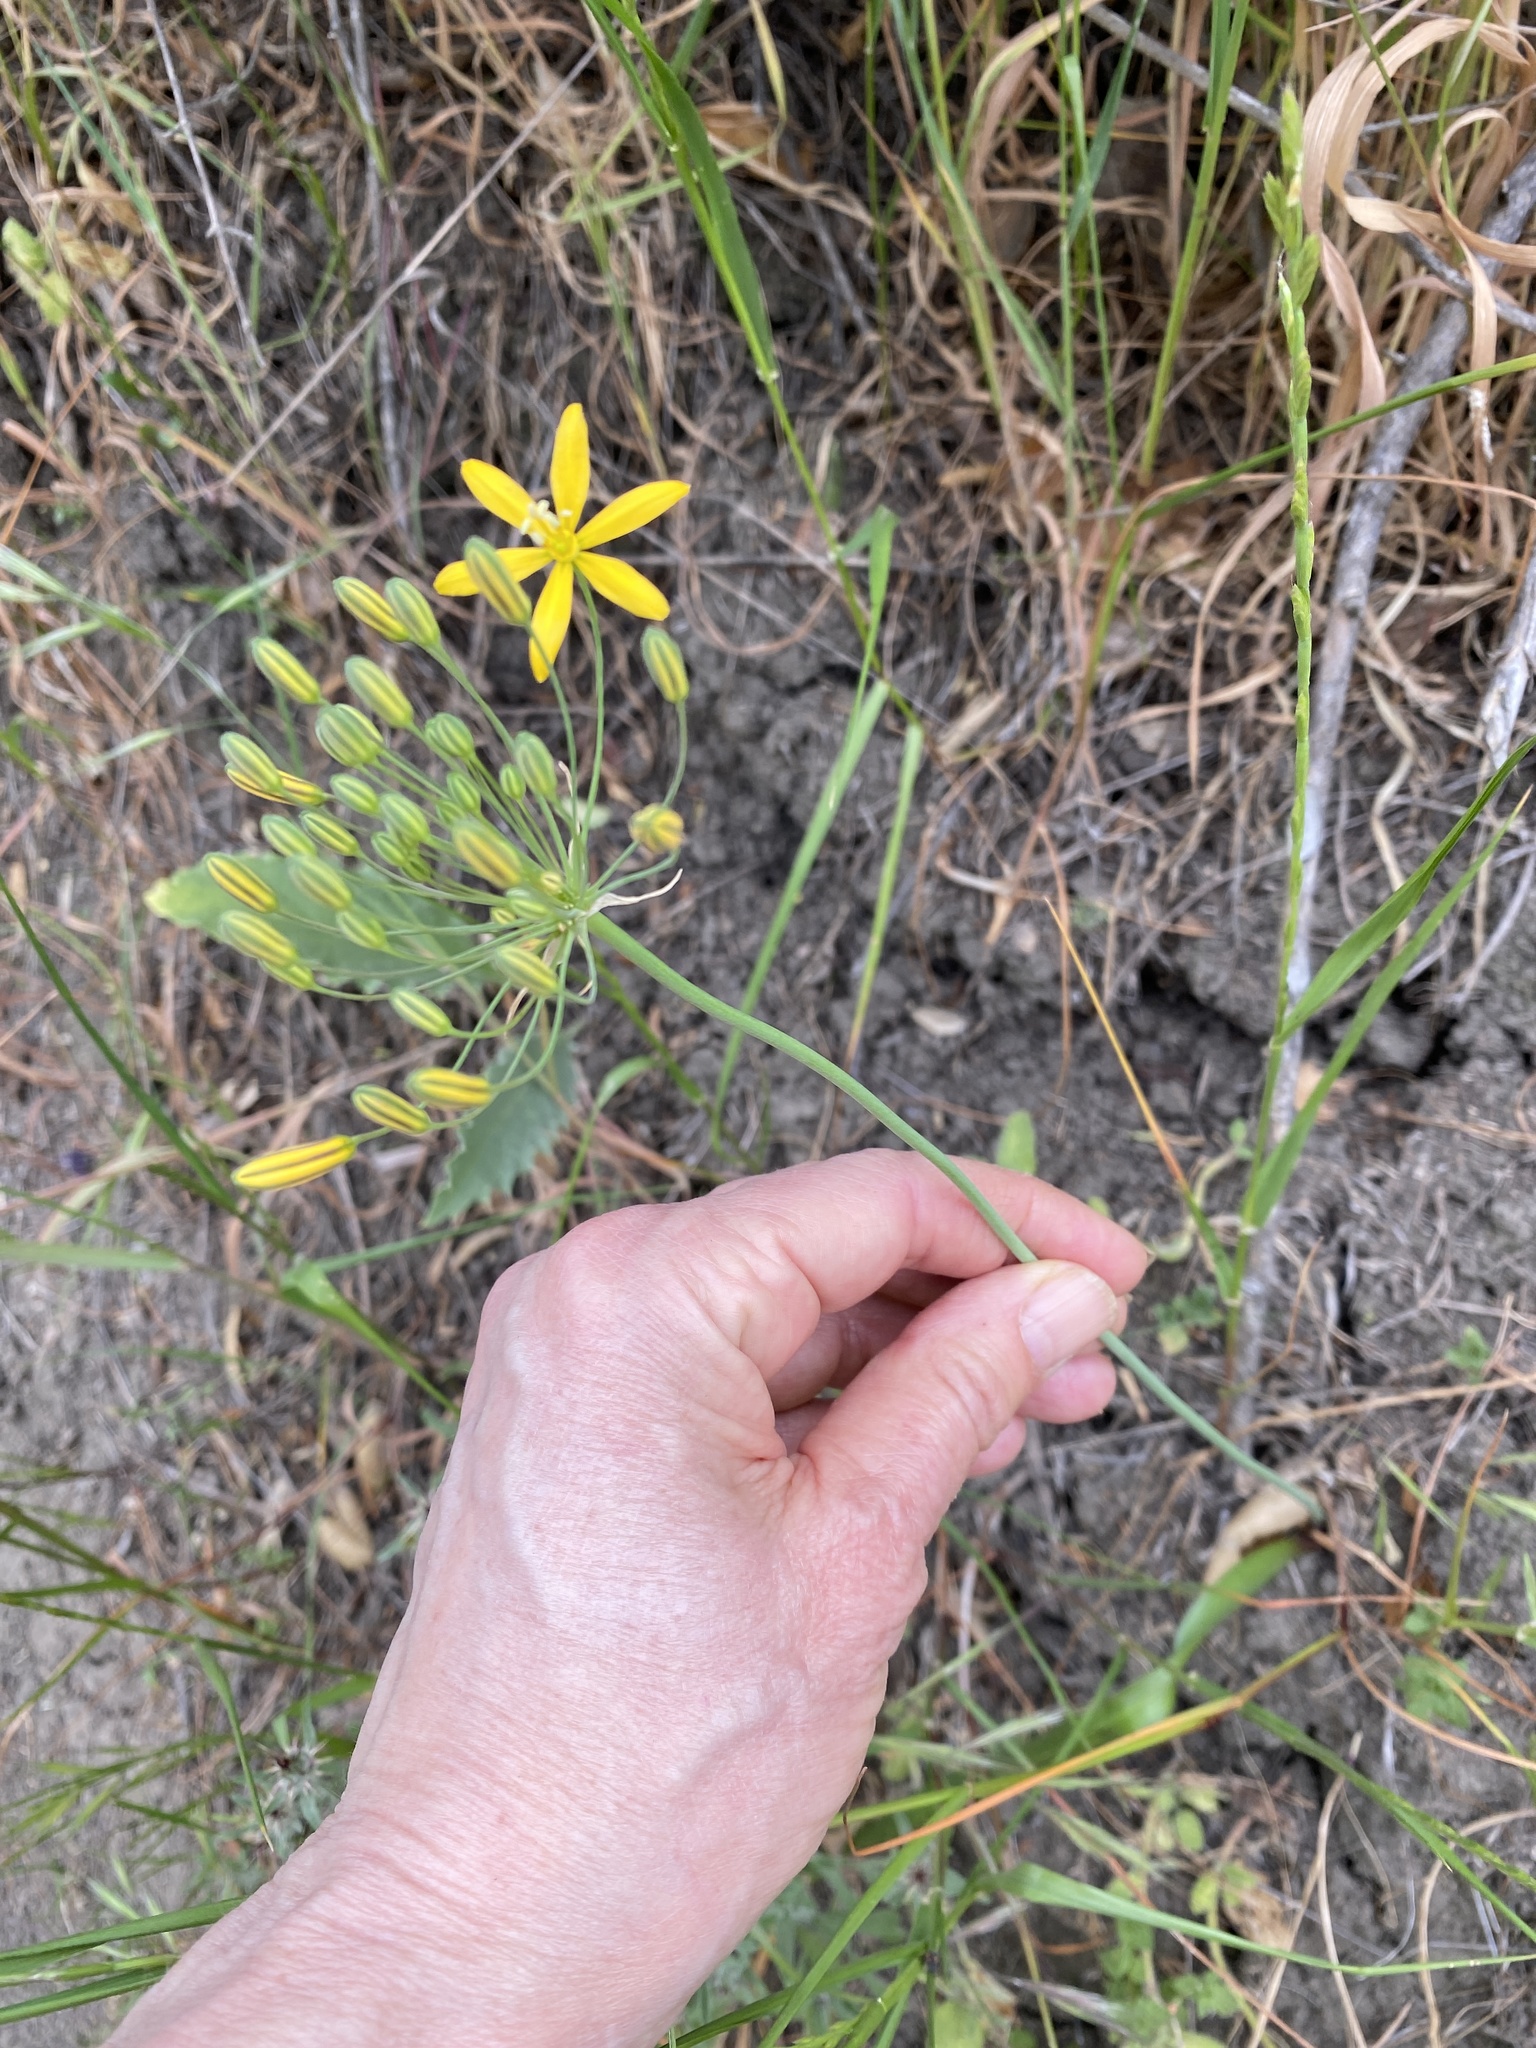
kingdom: Plantae
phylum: Tracheophyta
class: Liliopsida
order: Asparagales
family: Asparagaceae
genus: Bloomeria
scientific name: Bloomeria crocea
